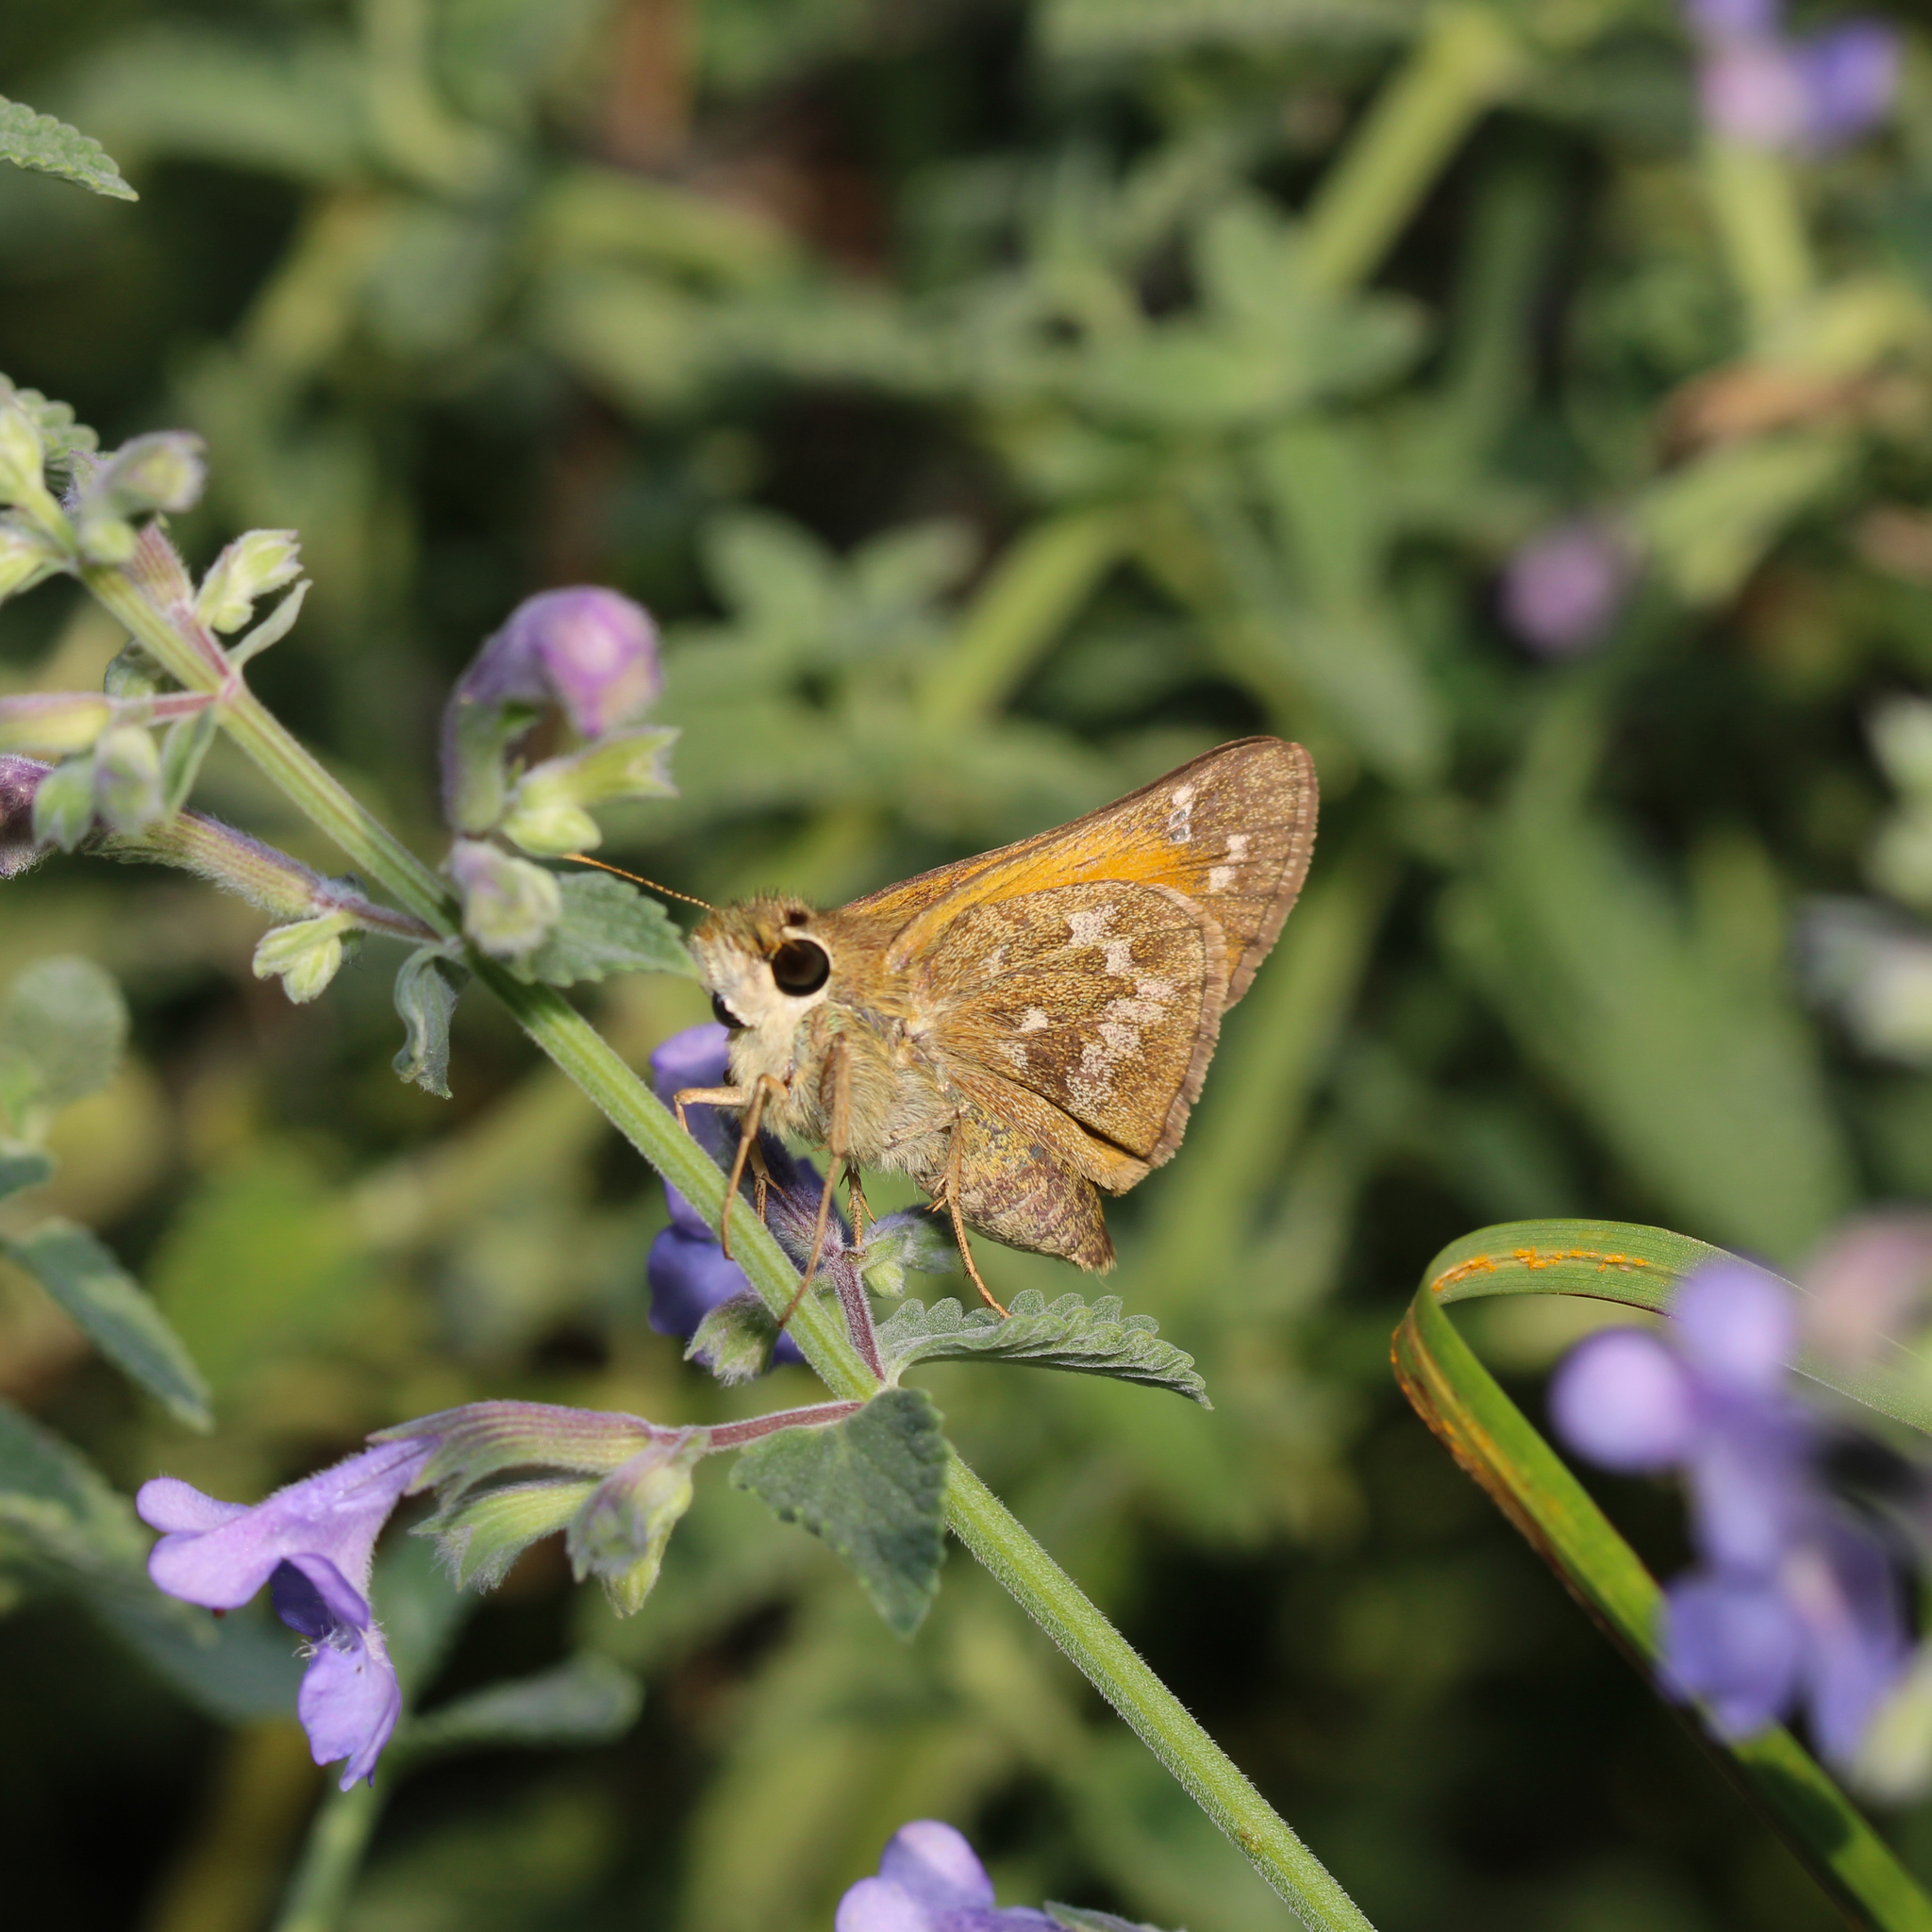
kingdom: Animalia
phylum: Arthropoda
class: Insecta
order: Lepidoptera
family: Hesperiidae
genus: Atalopedes
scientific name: Atalopedes
